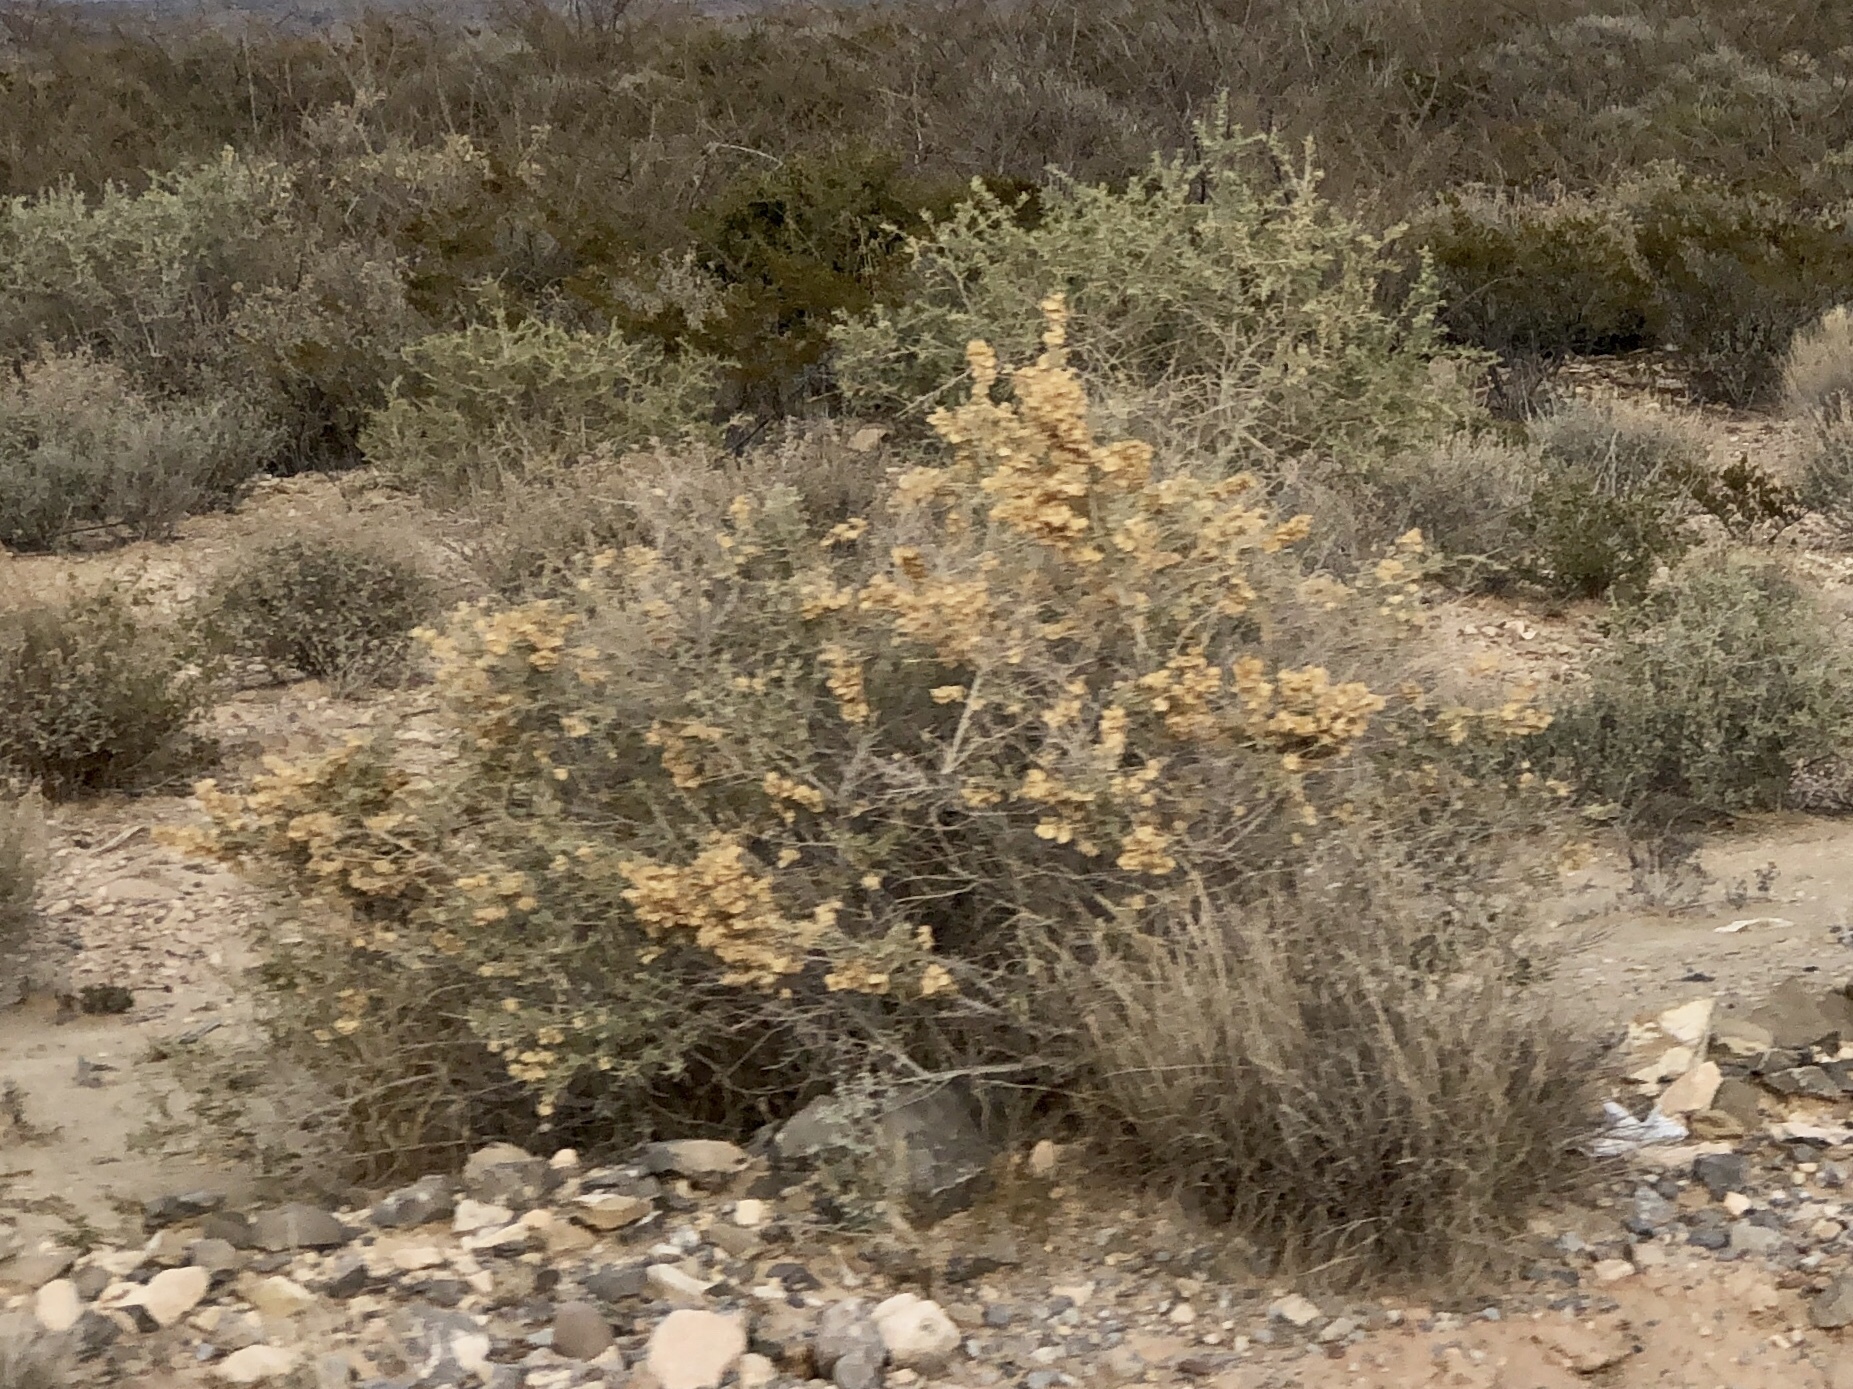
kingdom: Plantae
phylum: Tracheophyta
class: Magnoliopsida
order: Caryophyllales
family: Amaranthaceae
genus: Atriplex
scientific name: Atriplex canescens
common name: Four-wing saltbush
